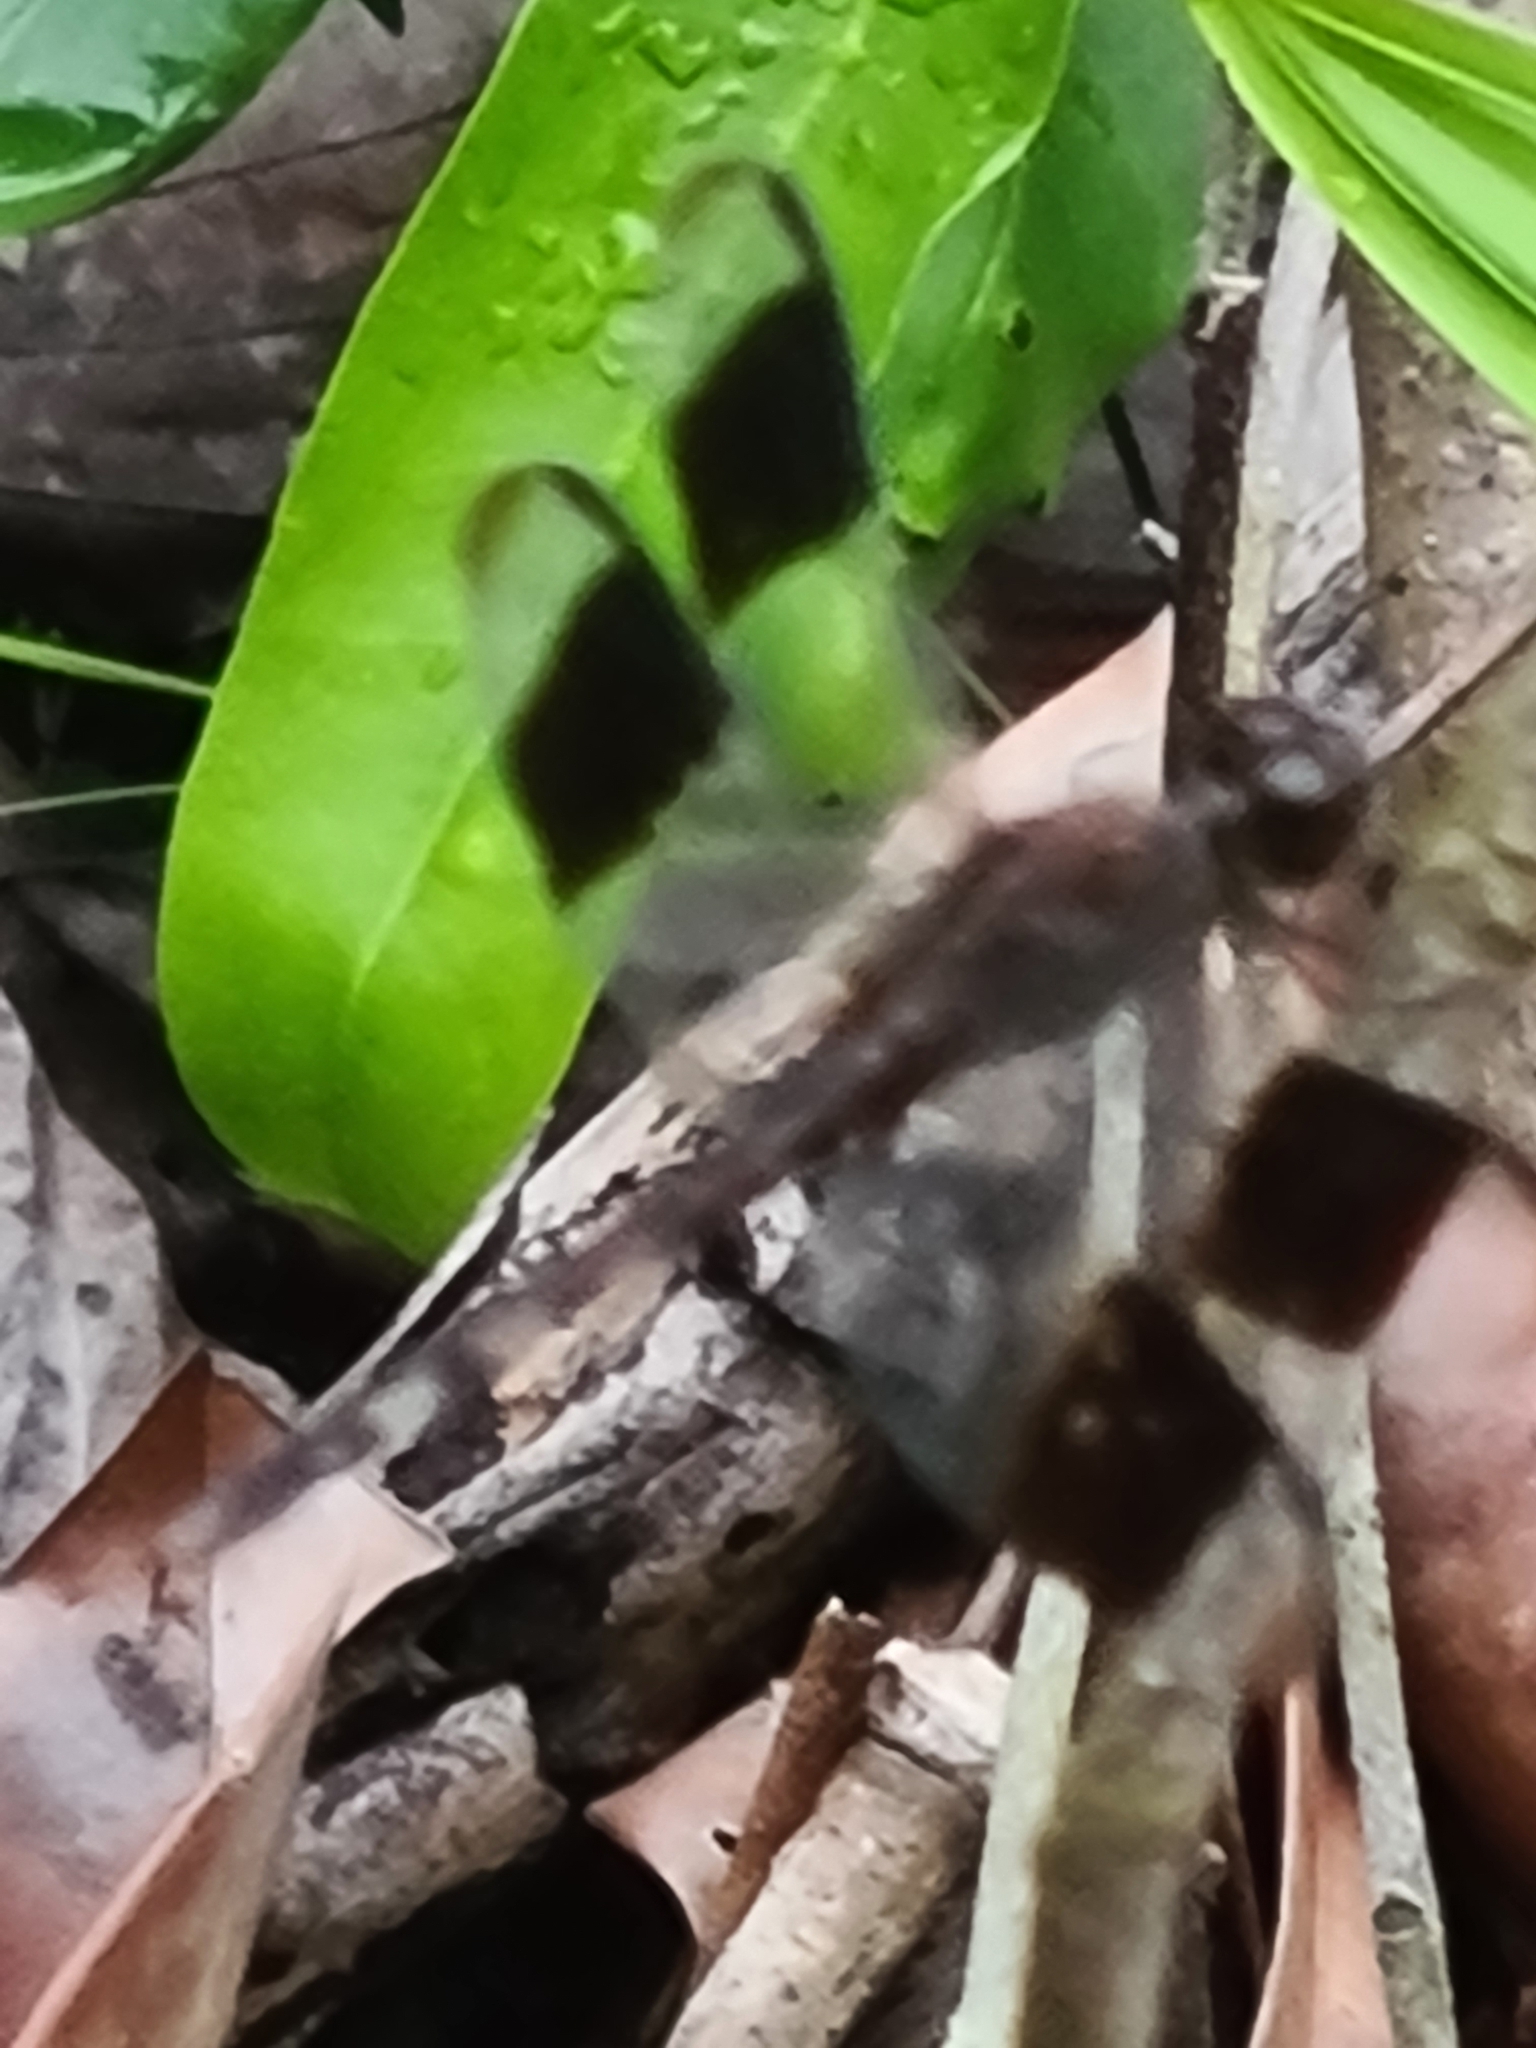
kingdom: Animalia
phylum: Arthropoda
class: Insecta
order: Odonata
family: Libellulidae
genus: Erythrodiplax
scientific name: Erythrodiplax umbrata
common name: Band-winged dragonlet
